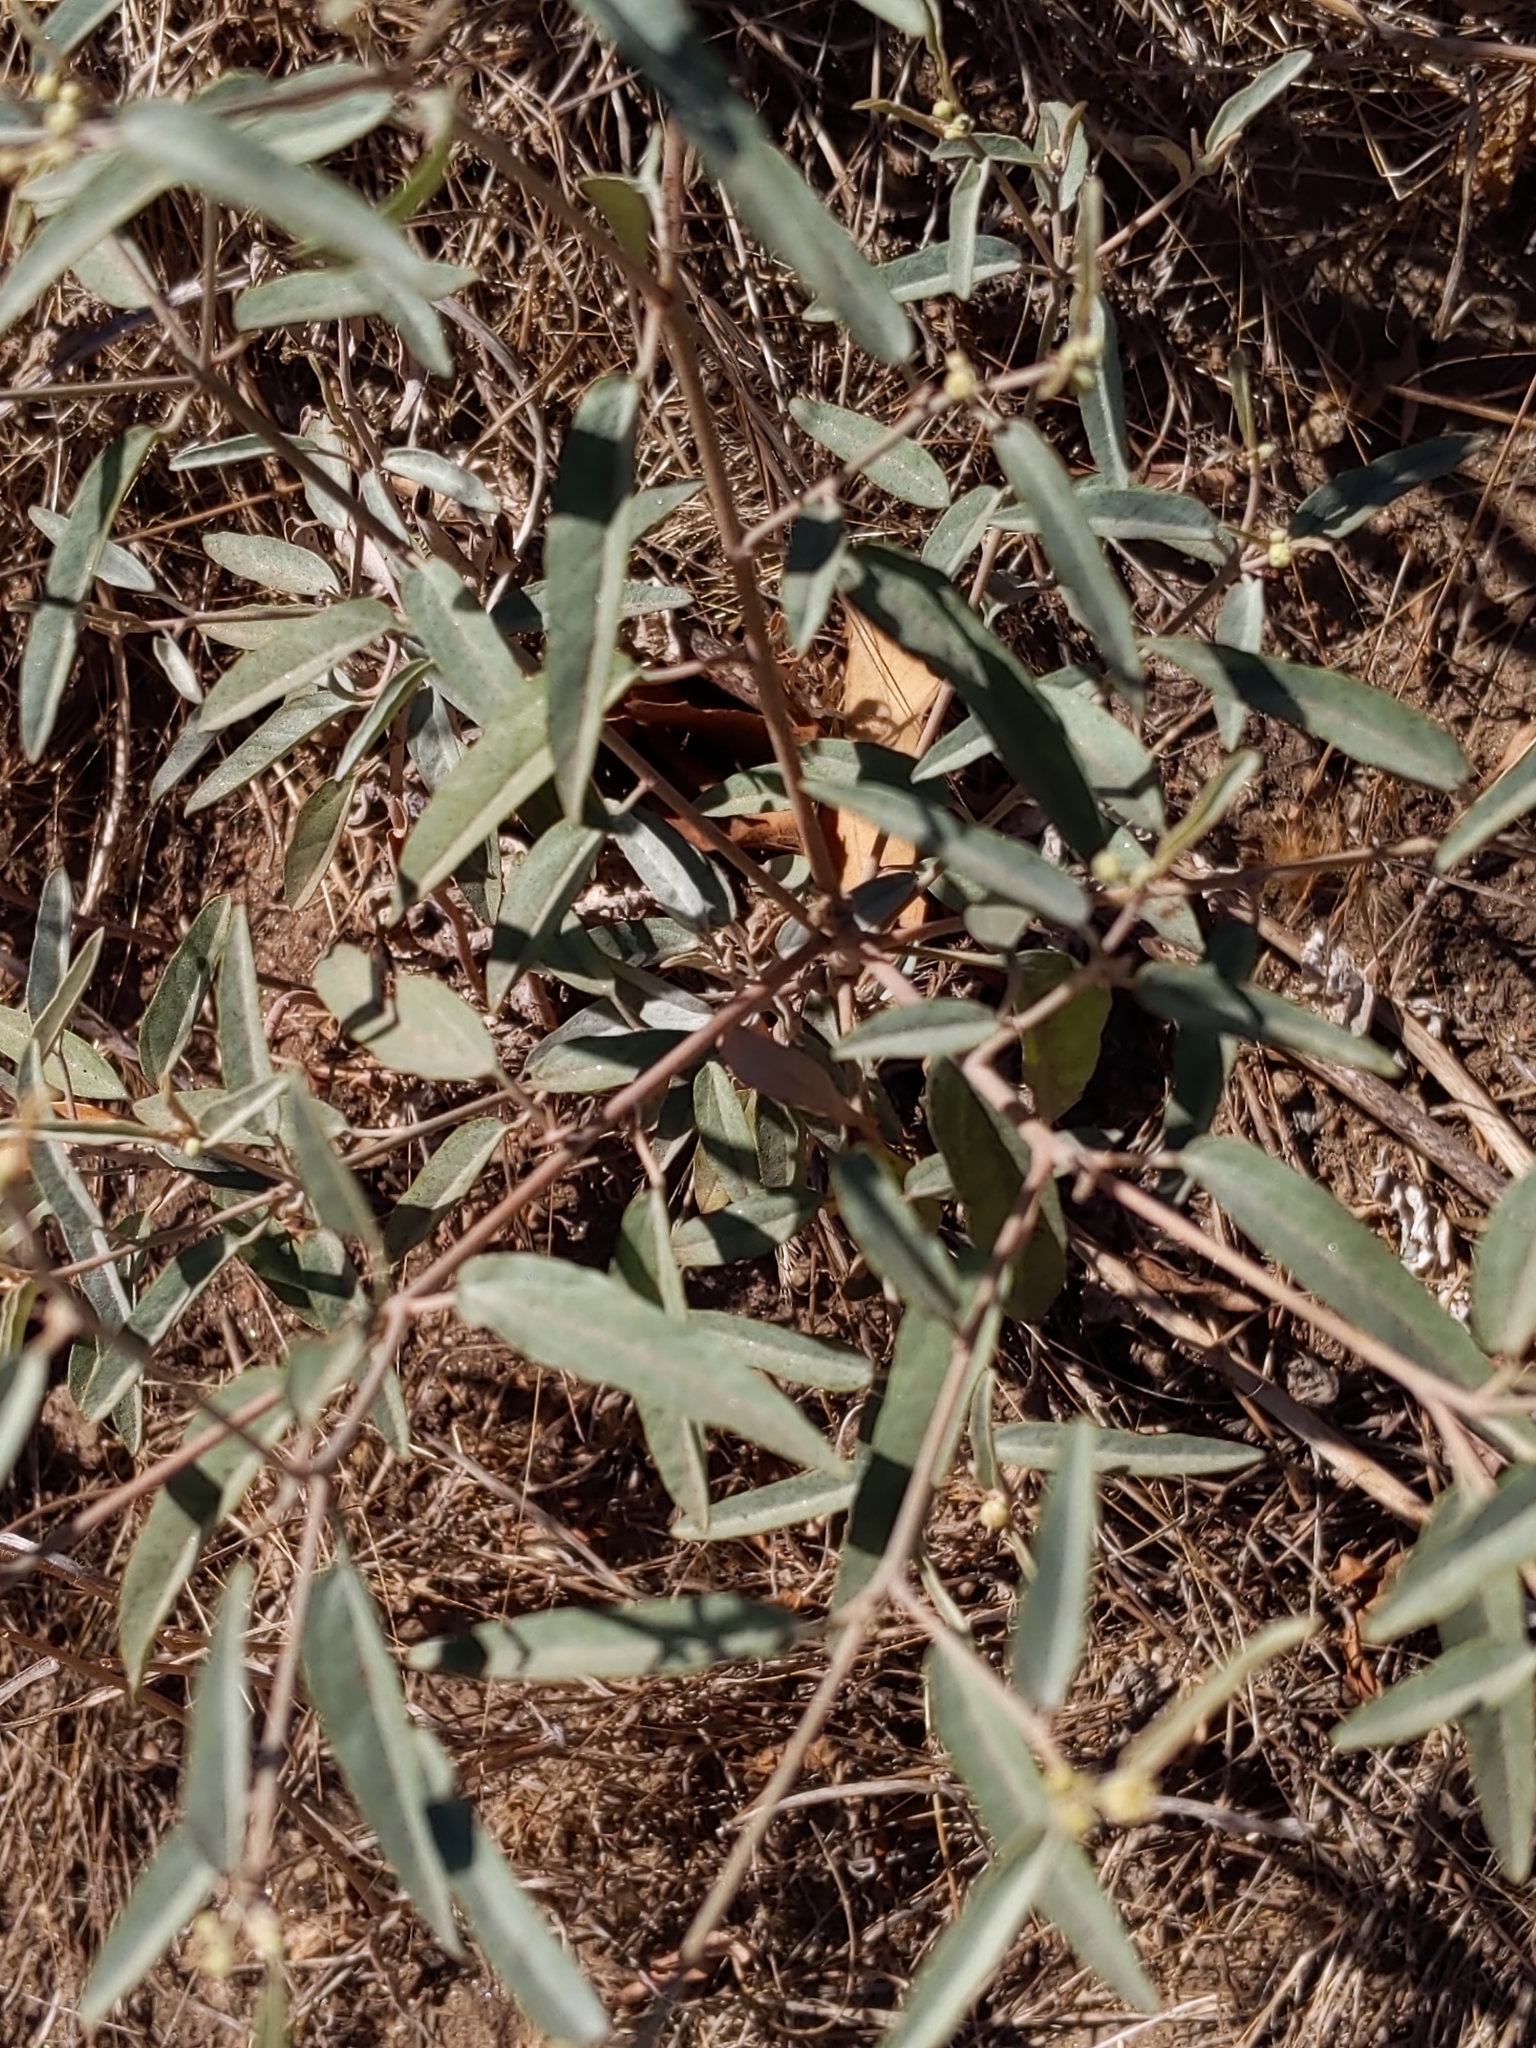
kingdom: Plantae
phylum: Tracheophyta
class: Magnoliopsida
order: Malpighiales
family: Euphorbiaceae
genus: Croton
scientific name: Croton californicus
